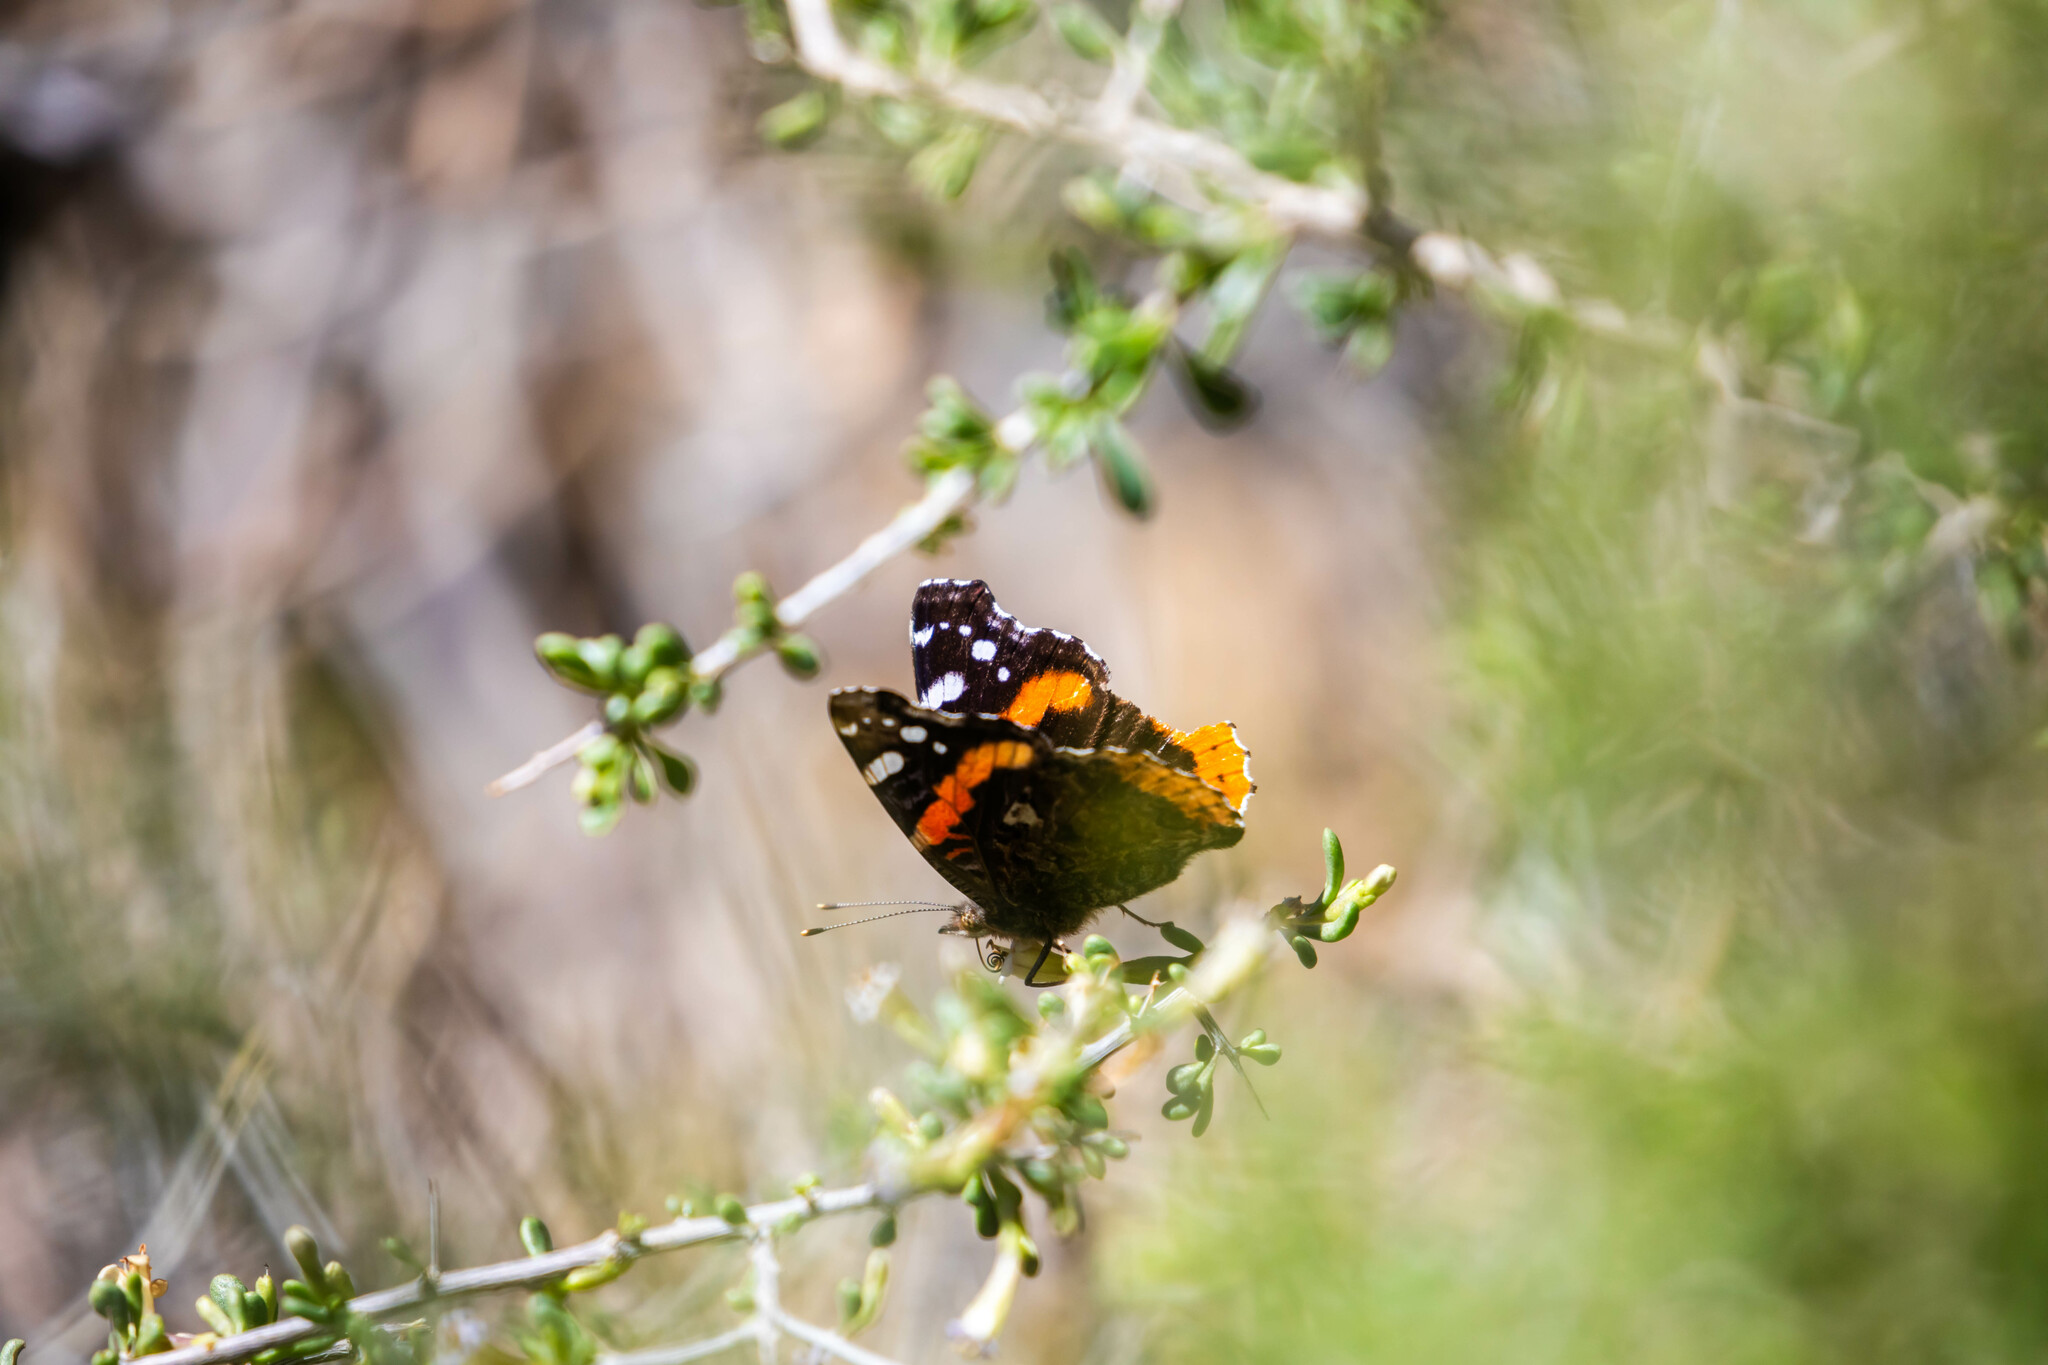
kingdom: Animalia
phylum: Arthropoda
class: Insecta
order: Lepidoptera
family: Nymphalidae
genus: Vanessa
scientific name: Vanessa atalanta
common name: Red admiral
